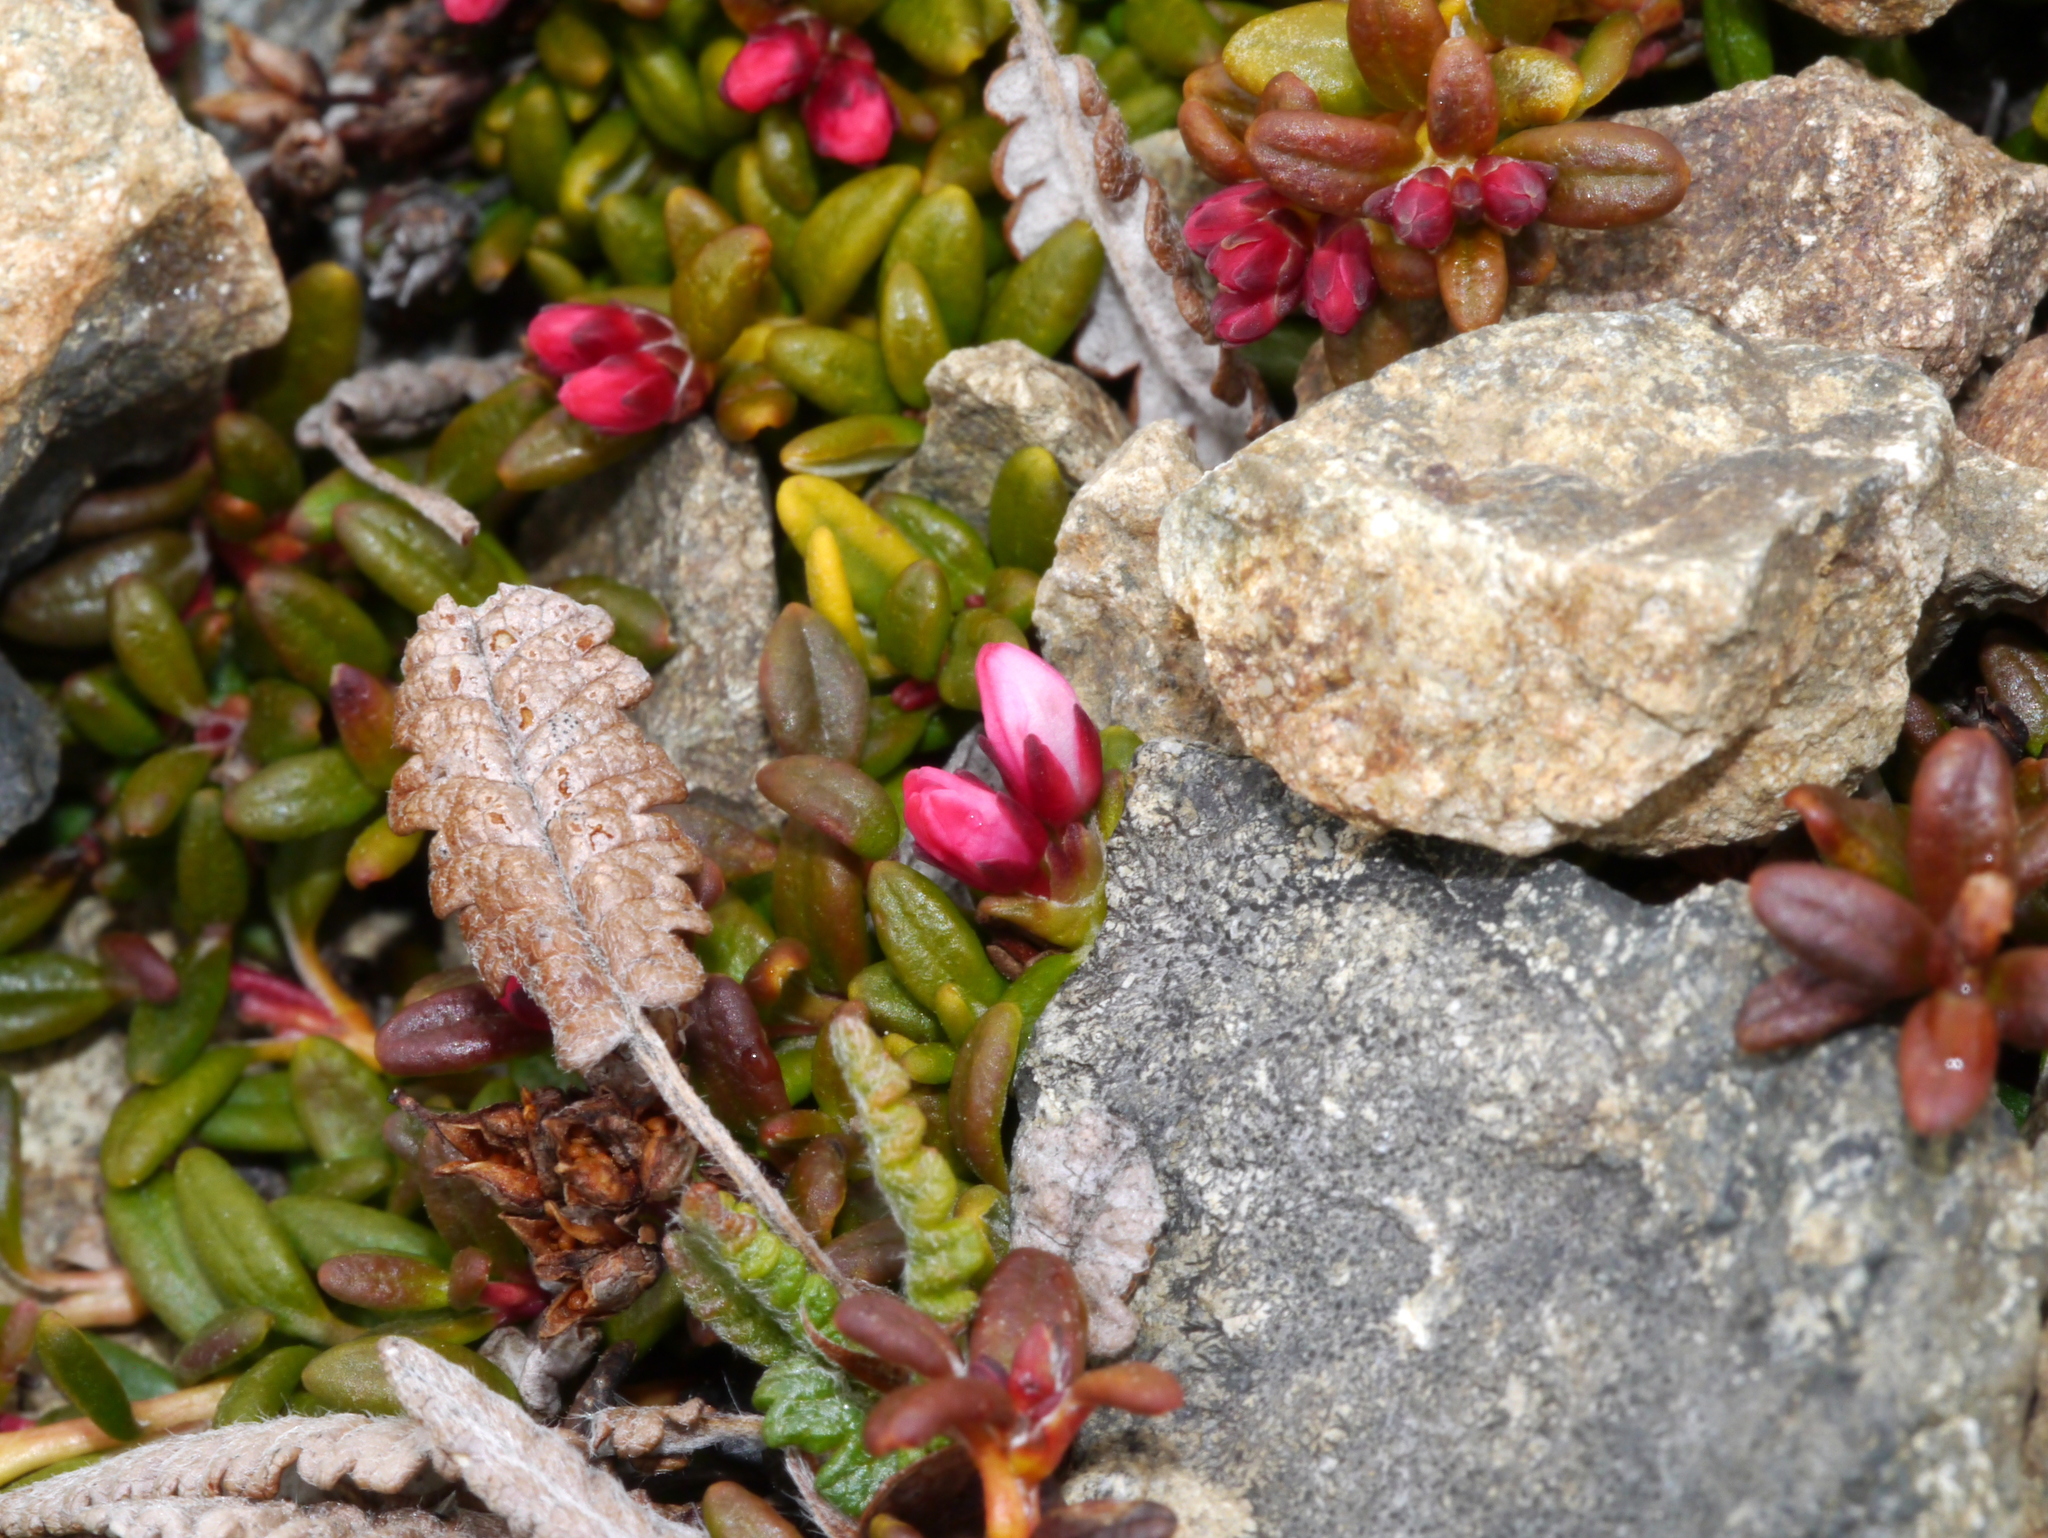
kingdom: Plantae
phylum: Tracheophyta
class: Magnoliopsida
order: Ericales
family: Ericaceae
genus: Kalmia
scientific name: Kalmia procumbens
